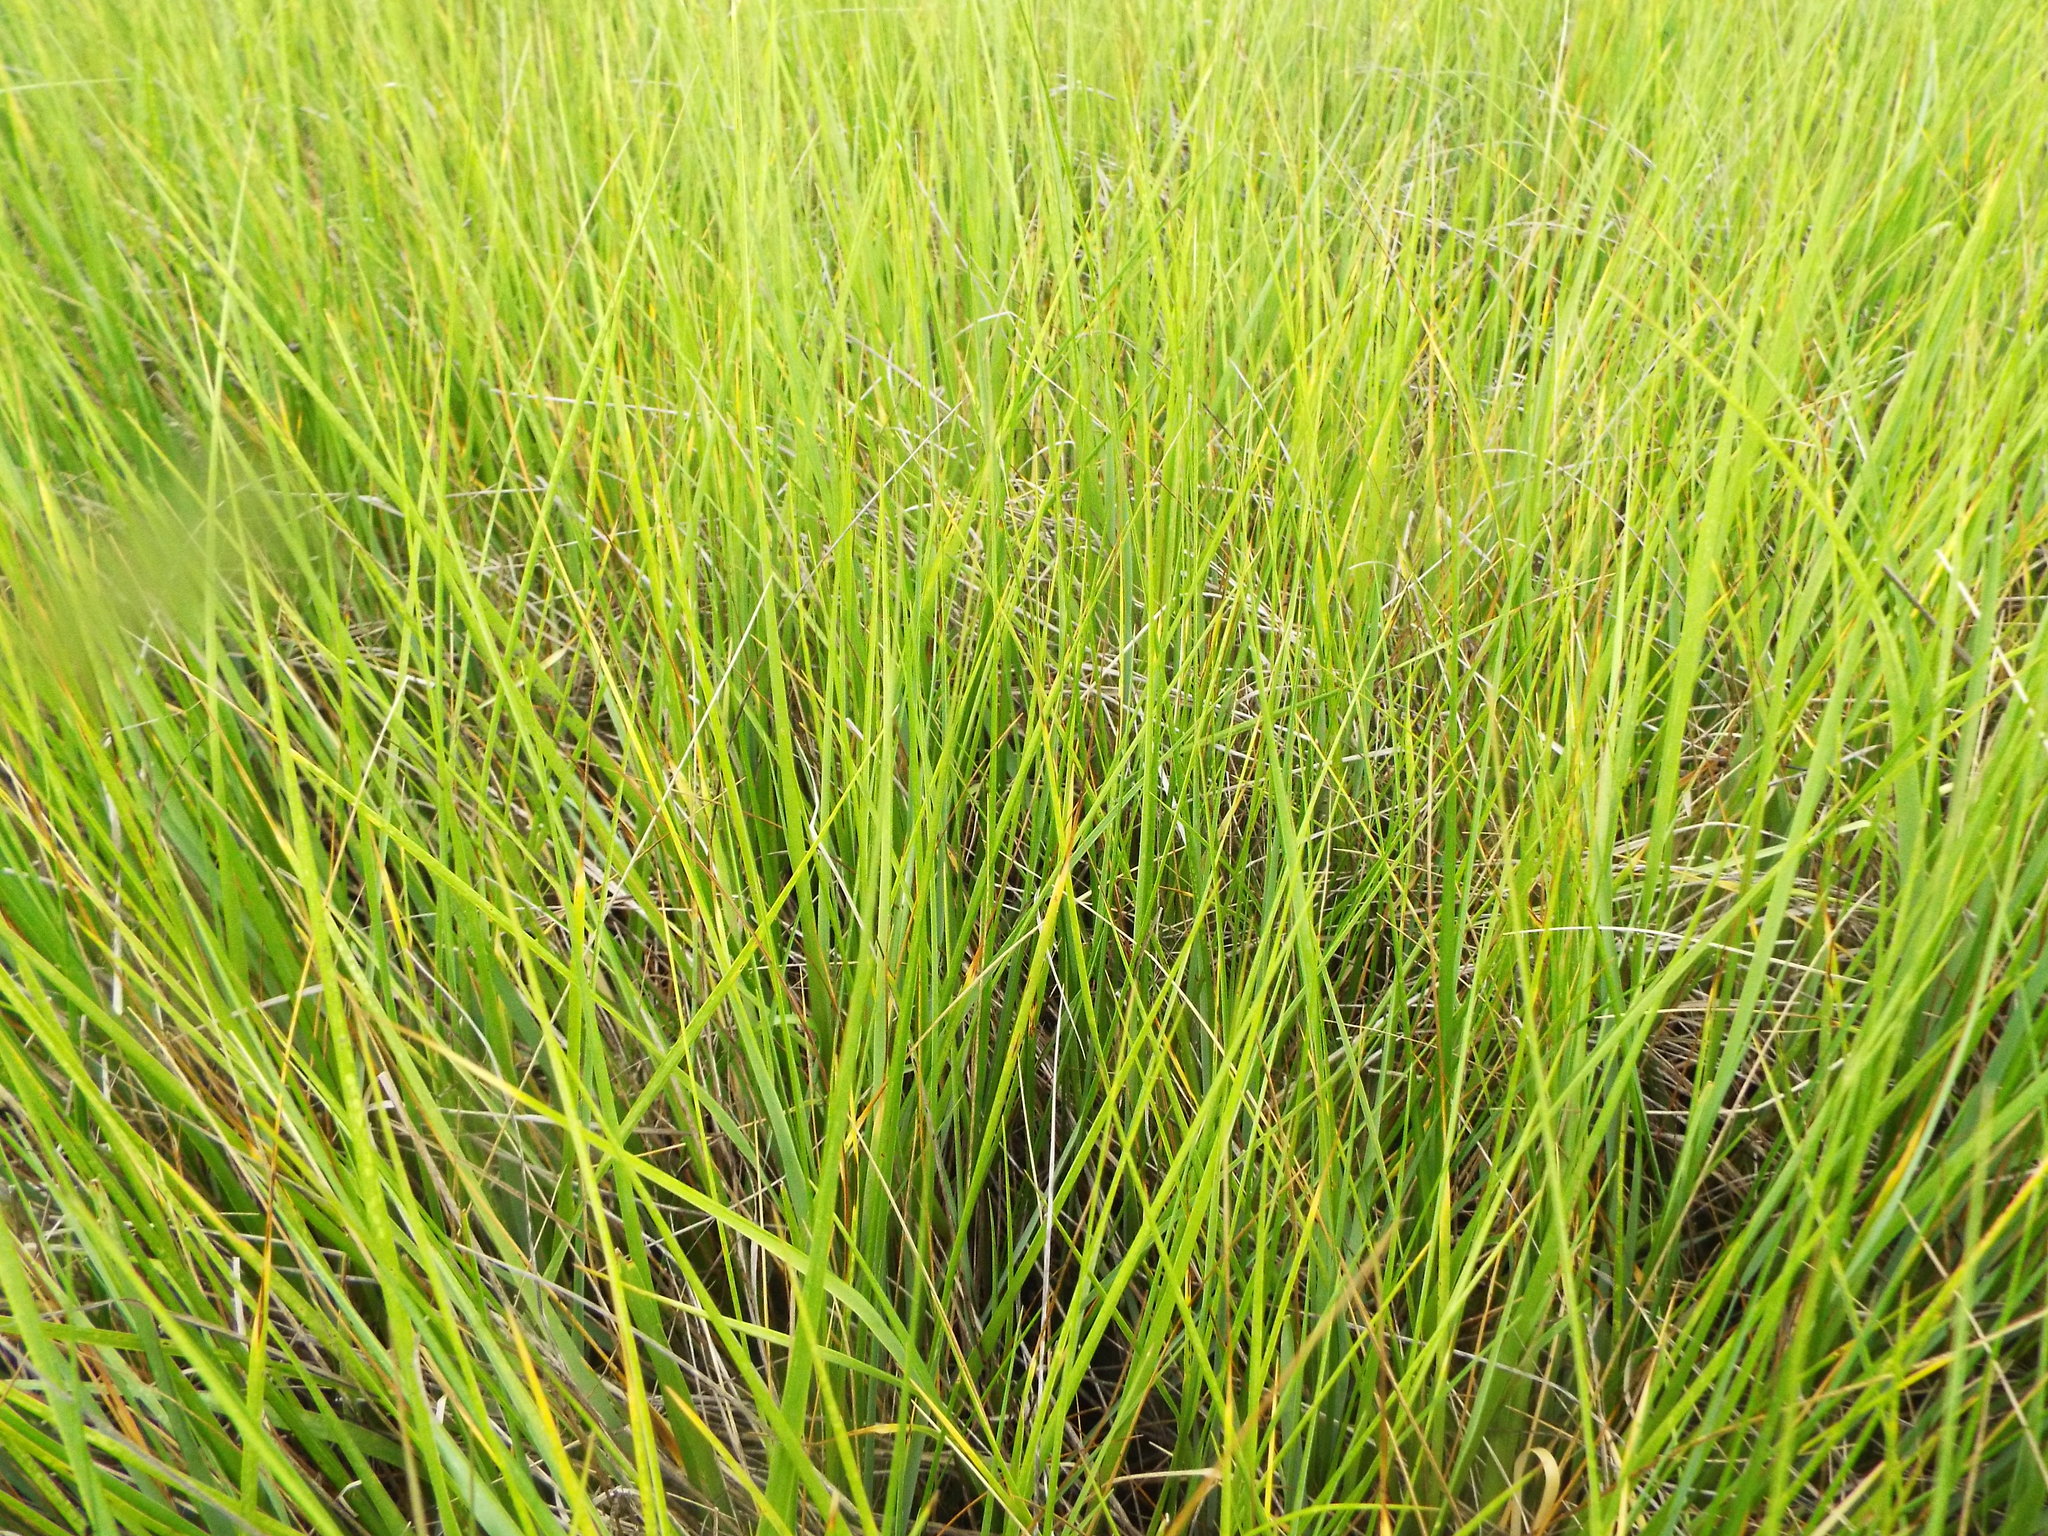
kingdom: Plantae
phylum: Tracheophyta
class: Liliopsida
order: Poales
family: Poaceae
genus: Sporobolus
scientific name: Sporobolus alterniflorus
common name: Atlantic cordgrass
